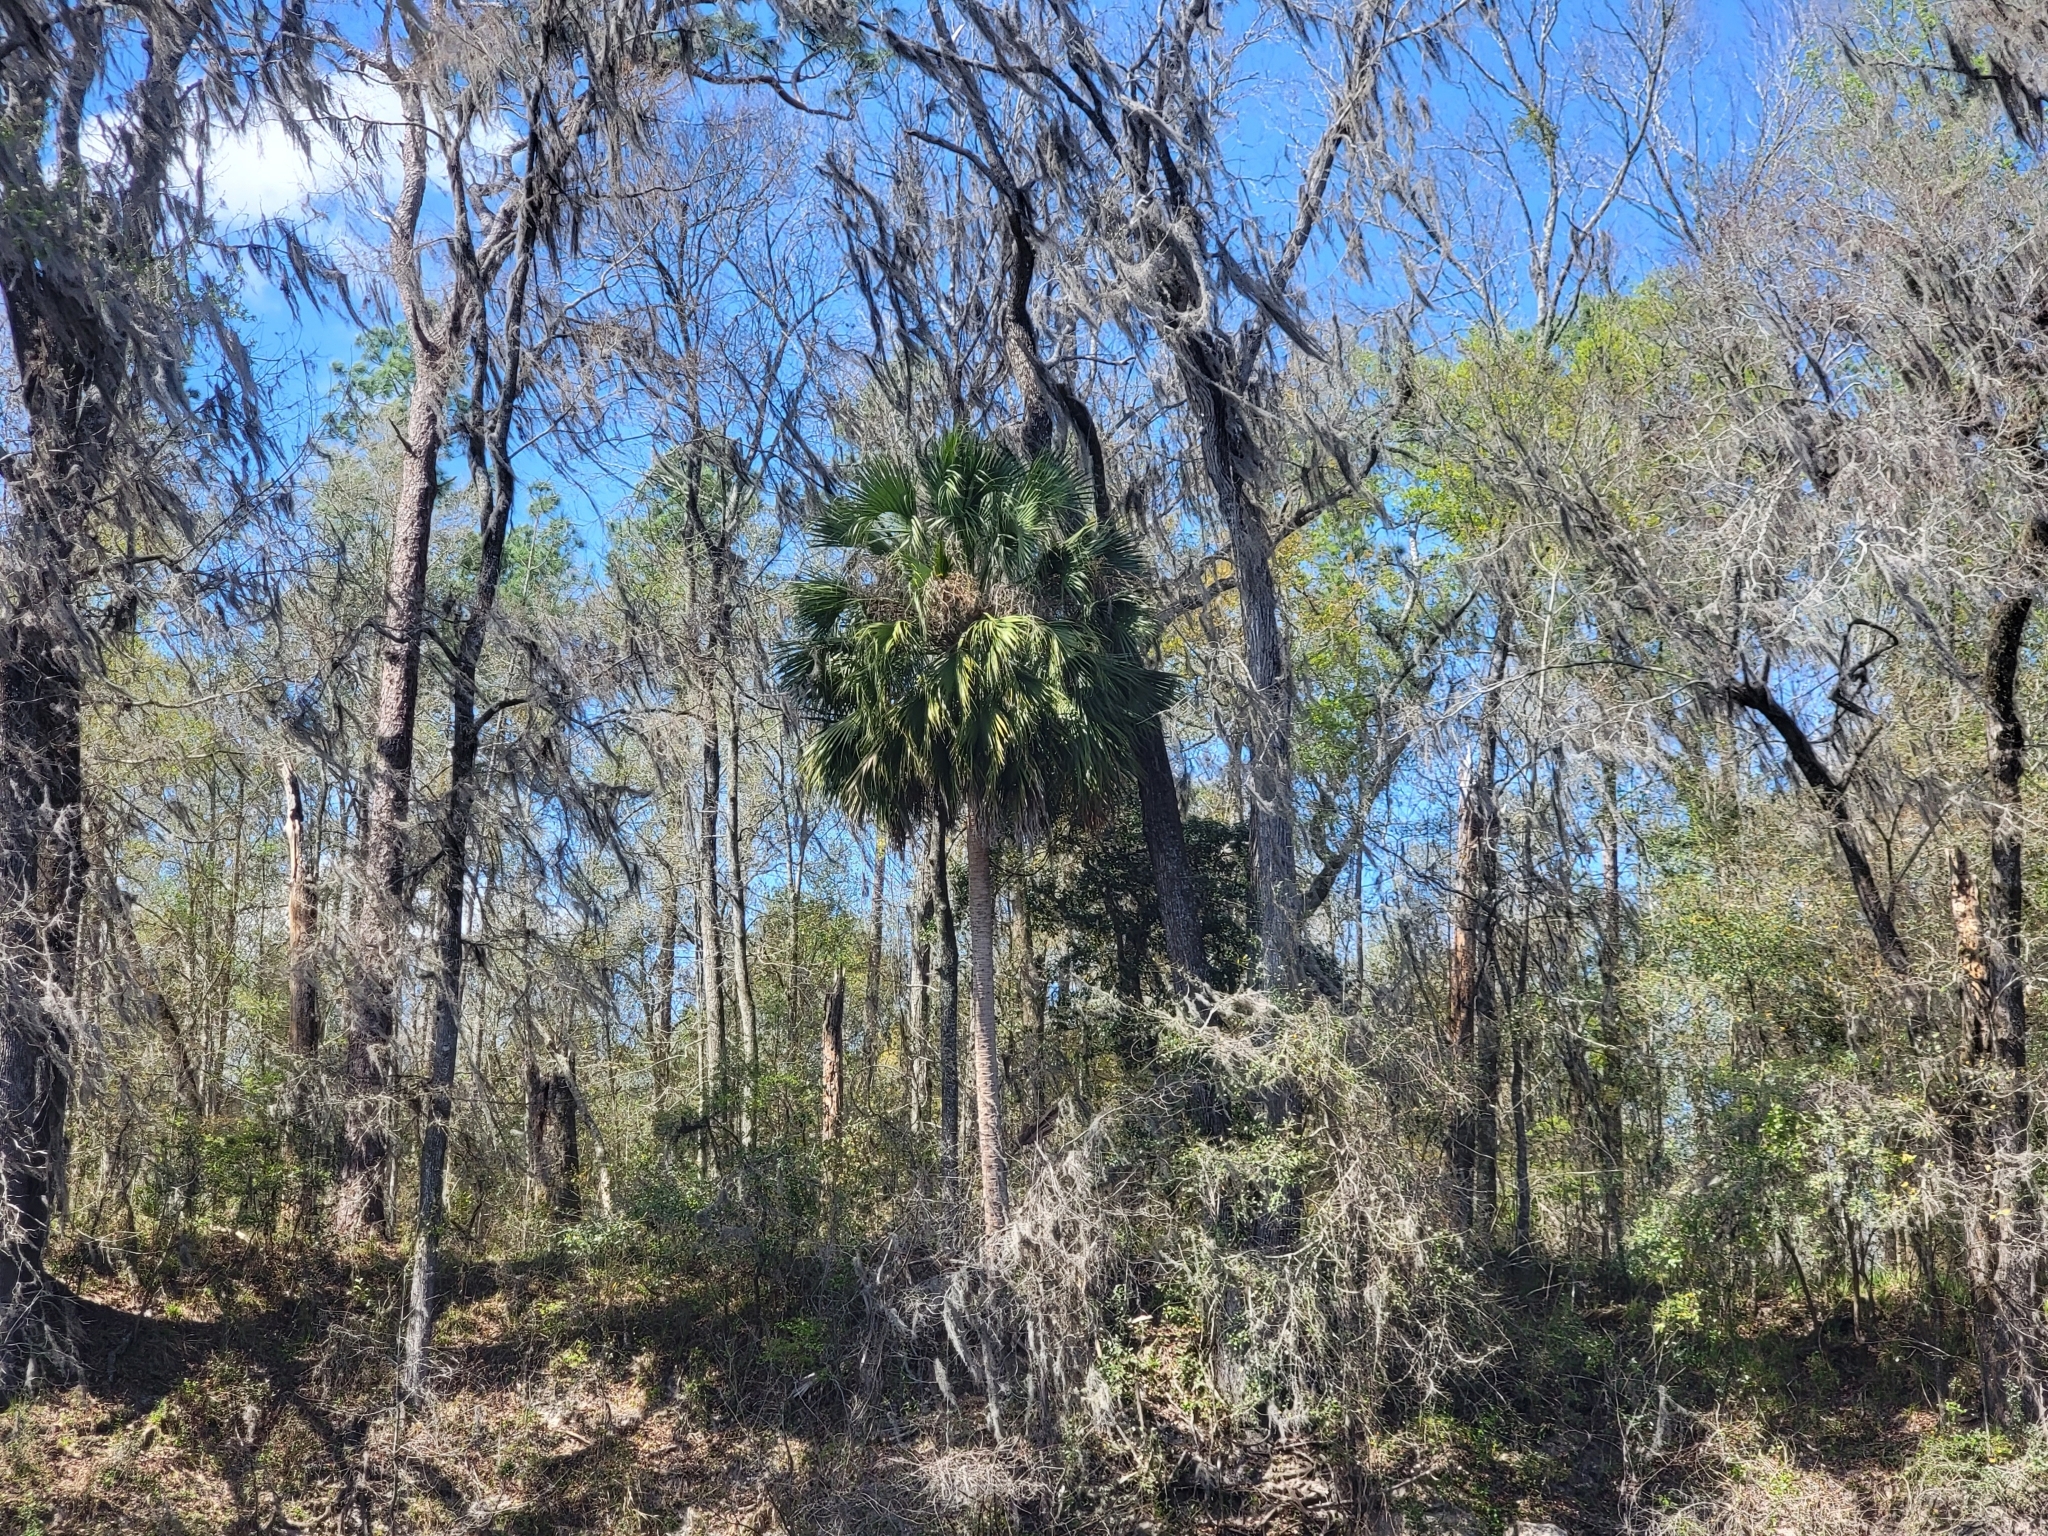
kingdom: Plantae
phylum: Tracheophyta
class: Liliopsida
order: Arecales
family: Arecaceae
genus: Sabal
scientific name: Sabal palmetto
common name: Blue palmetto
